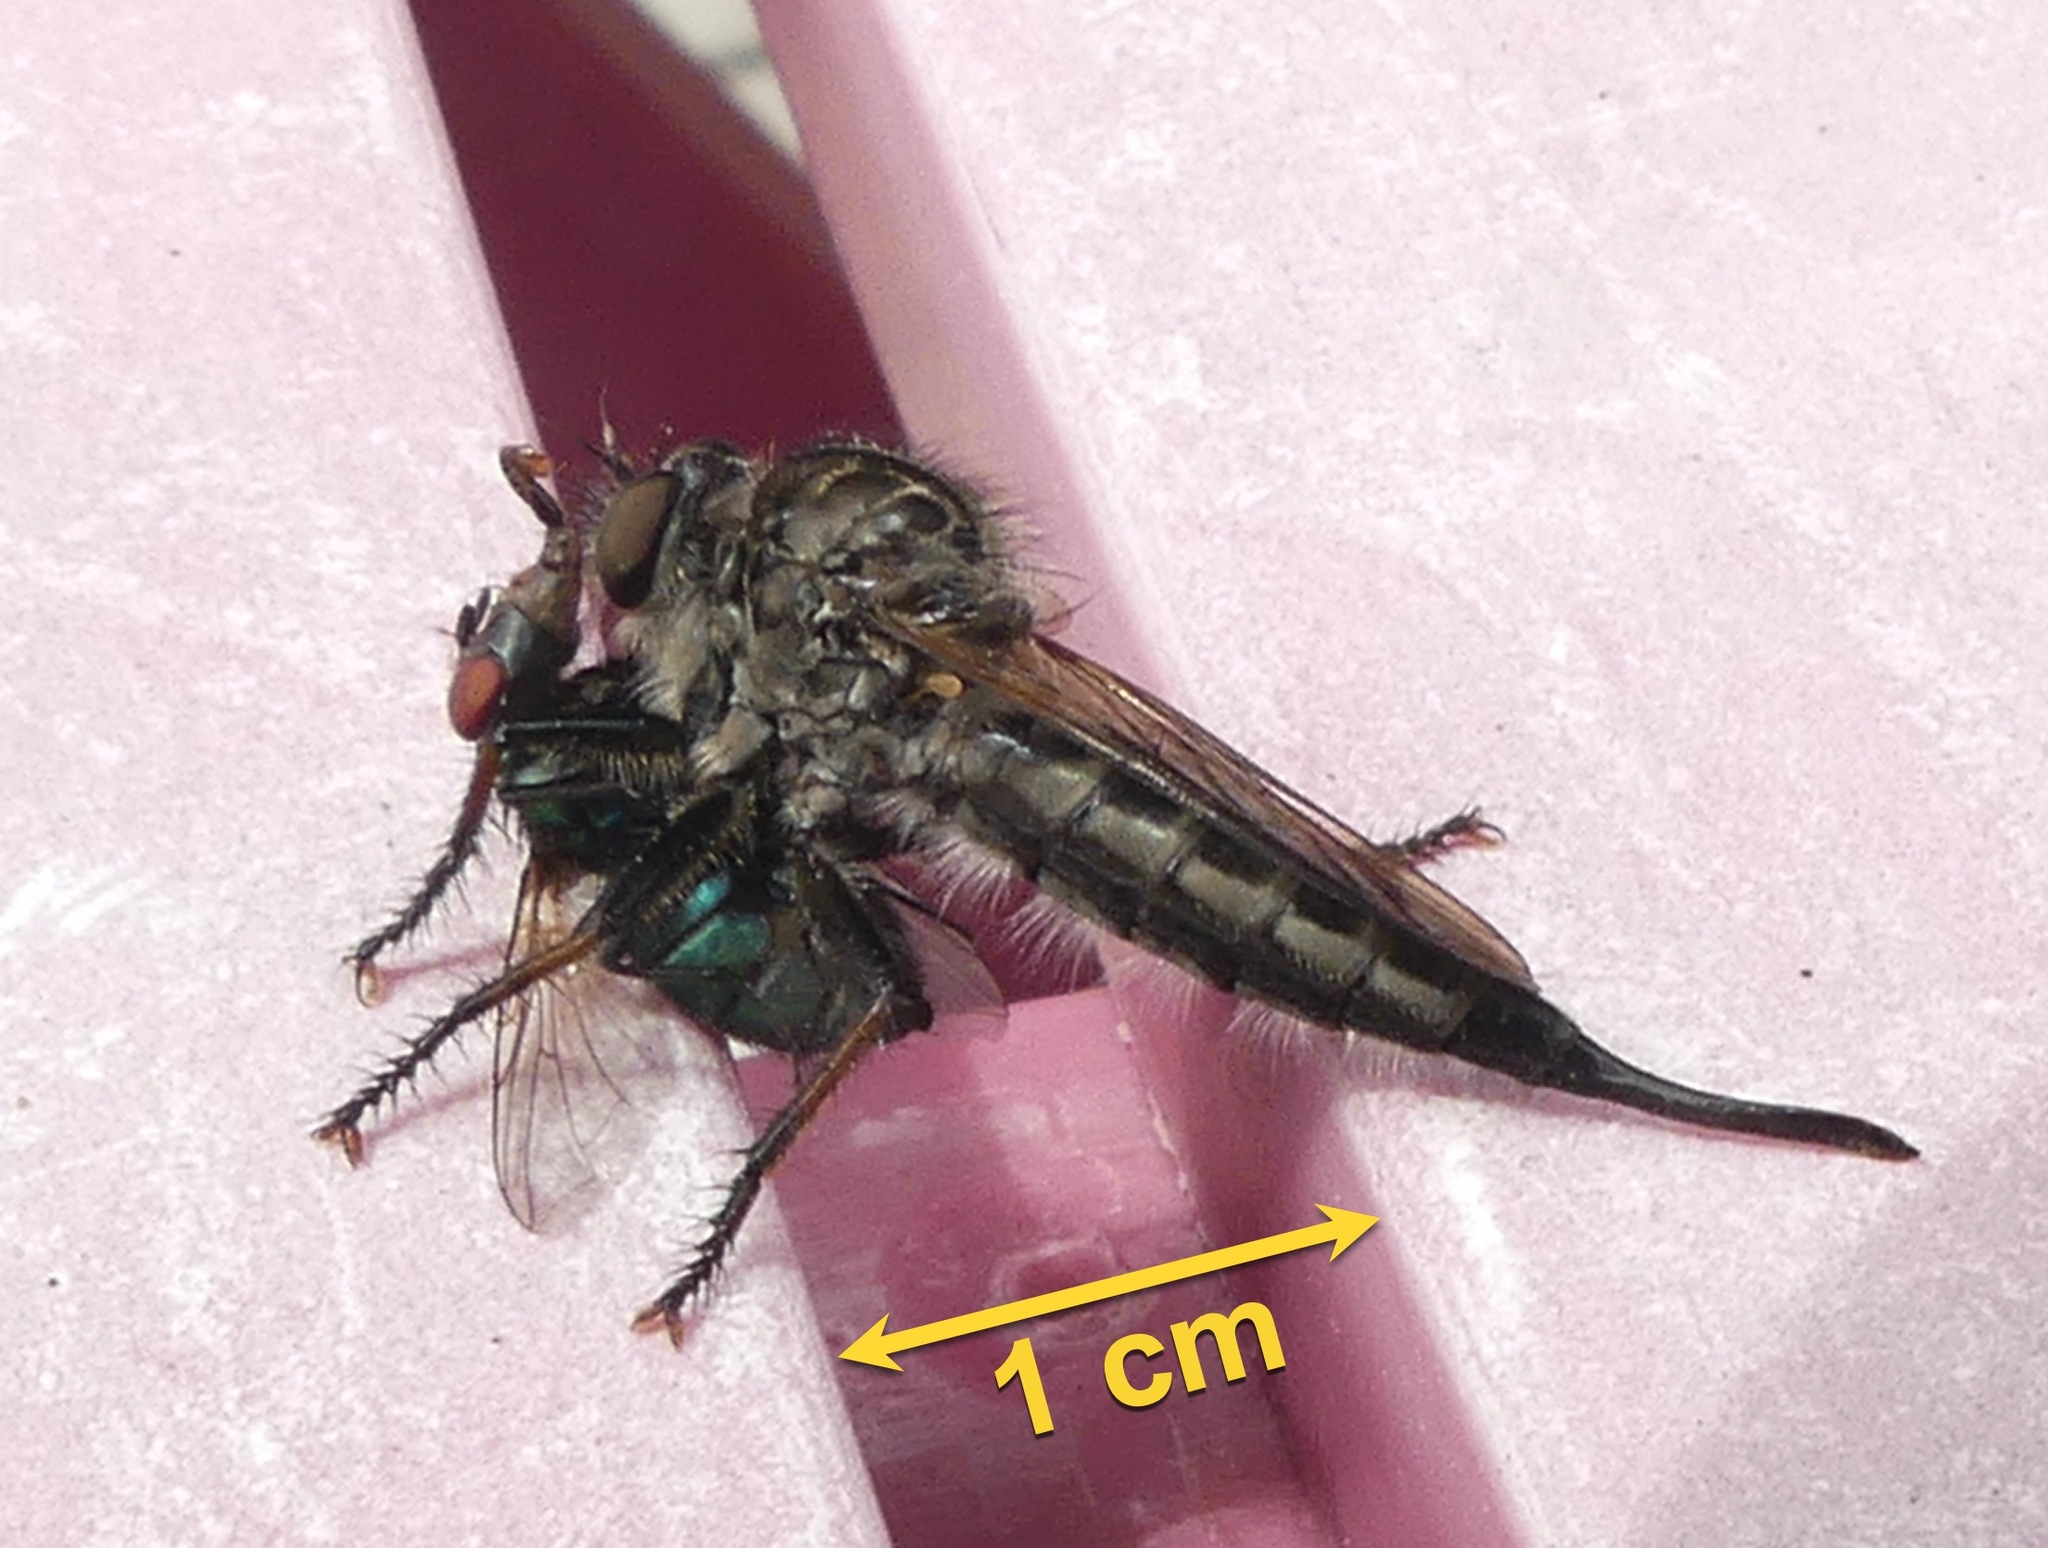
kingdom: Animalia
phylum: Arthropoda
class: Insecta
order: Diptera
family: Asilidae
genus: Efferia
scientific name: Efferia aestuans
